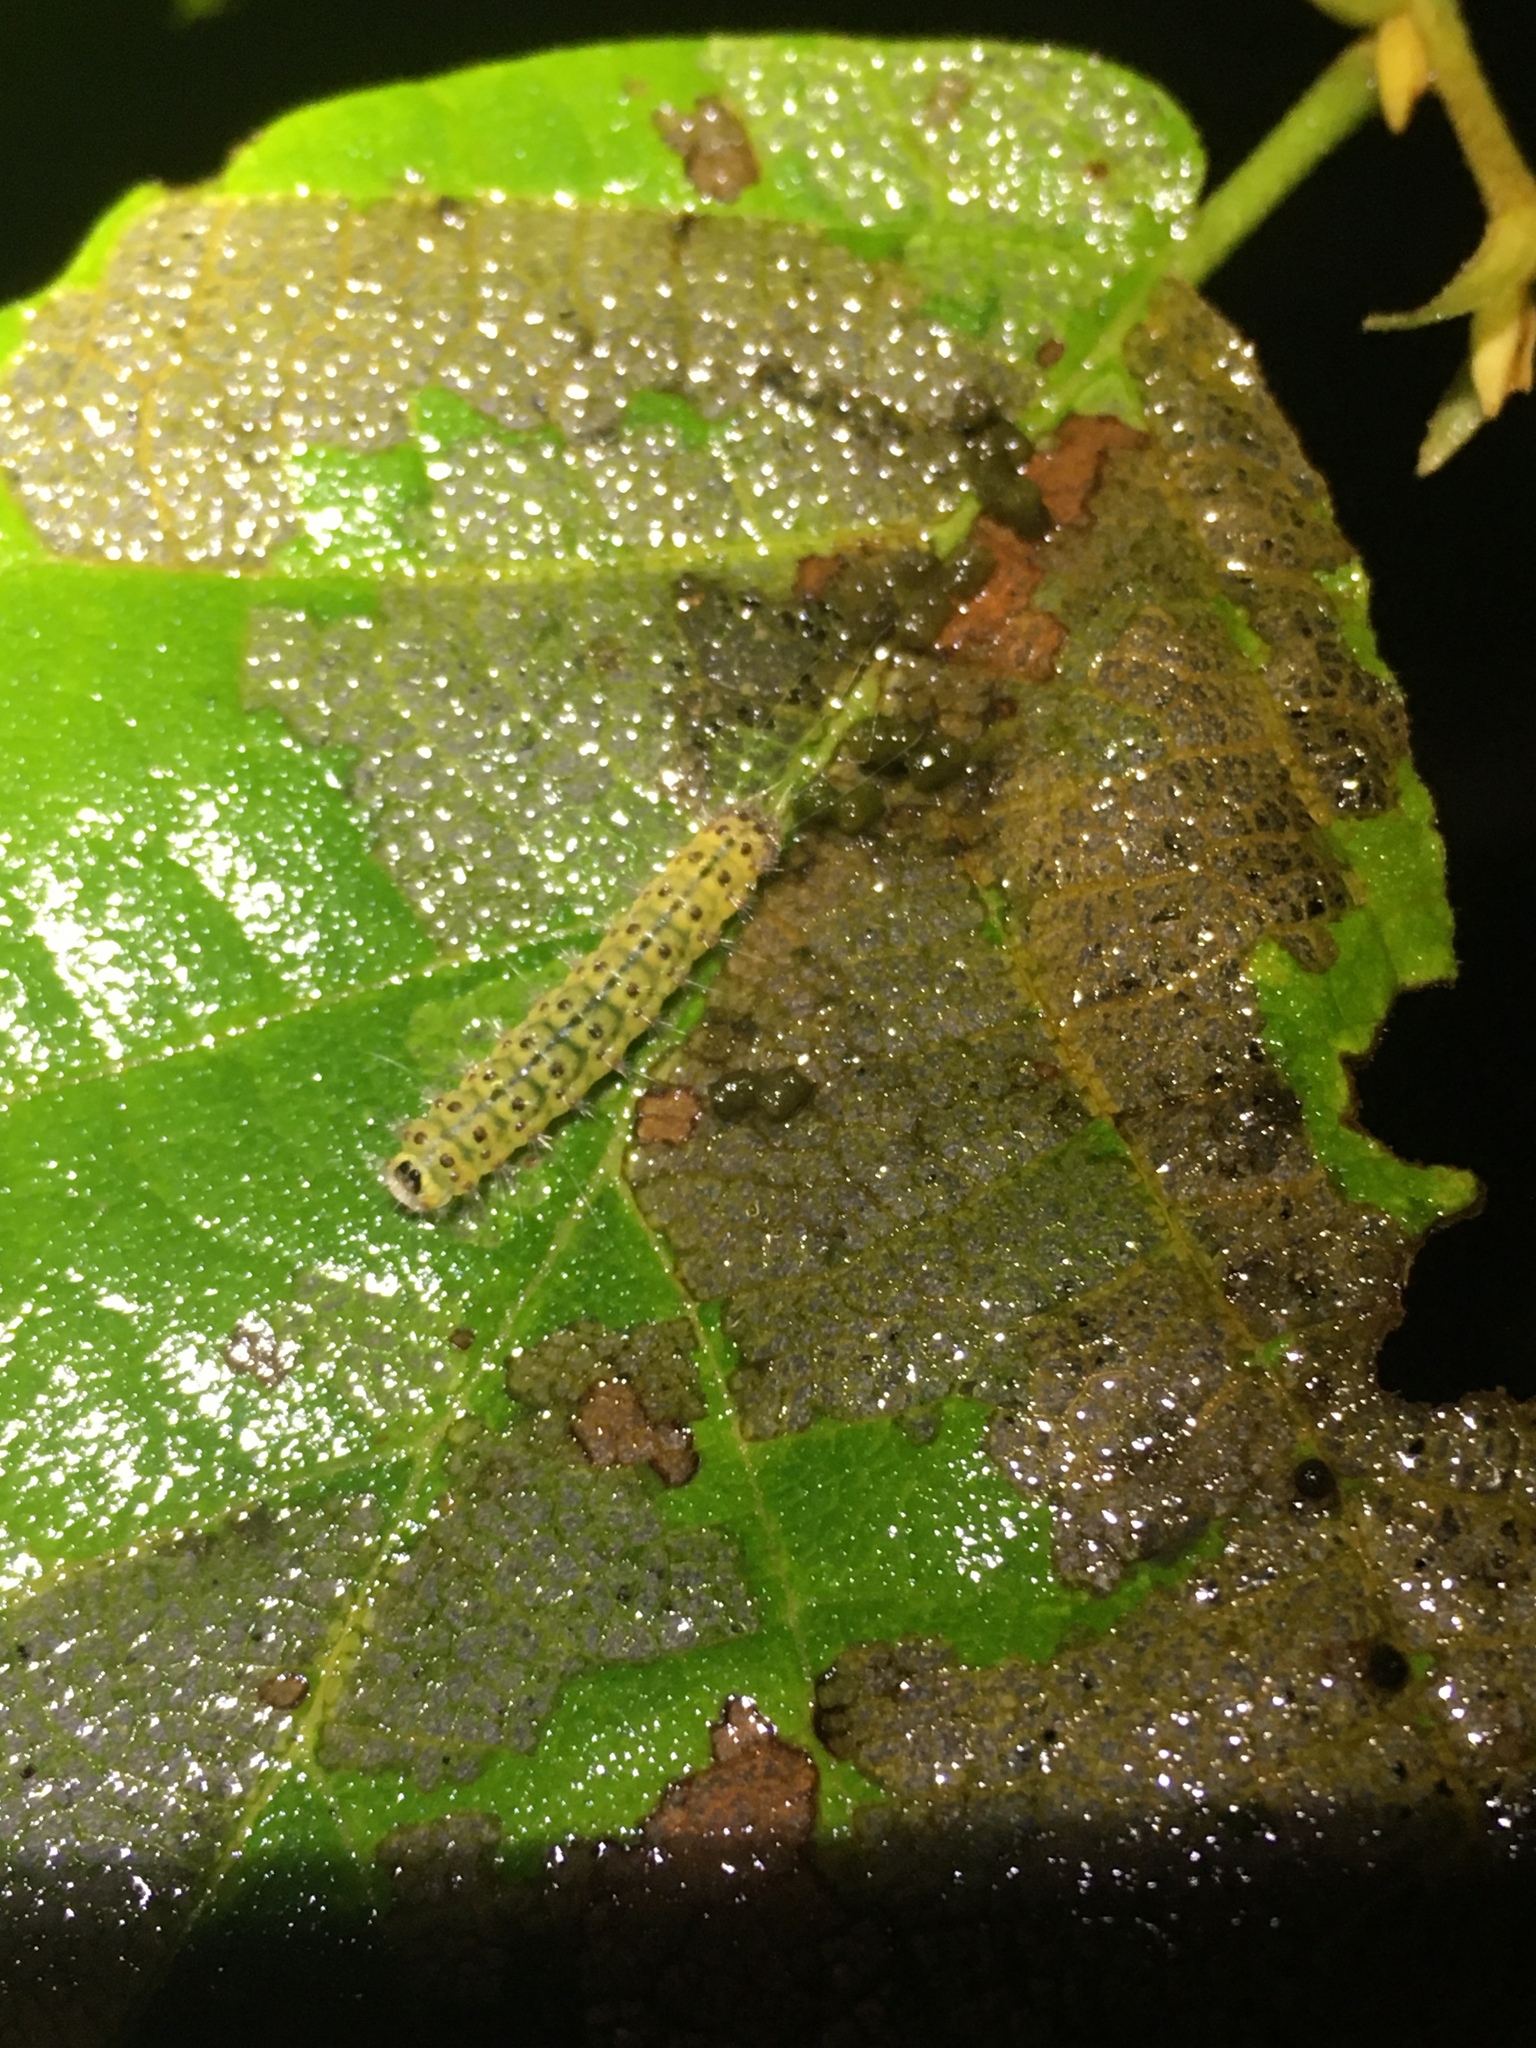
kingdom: Animalia
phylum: Arthropoda
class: Insecta
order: Lepidoptera
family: Nolidae
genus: Nola
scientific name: Nola triquetrana
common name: Three-spotted nola moth
